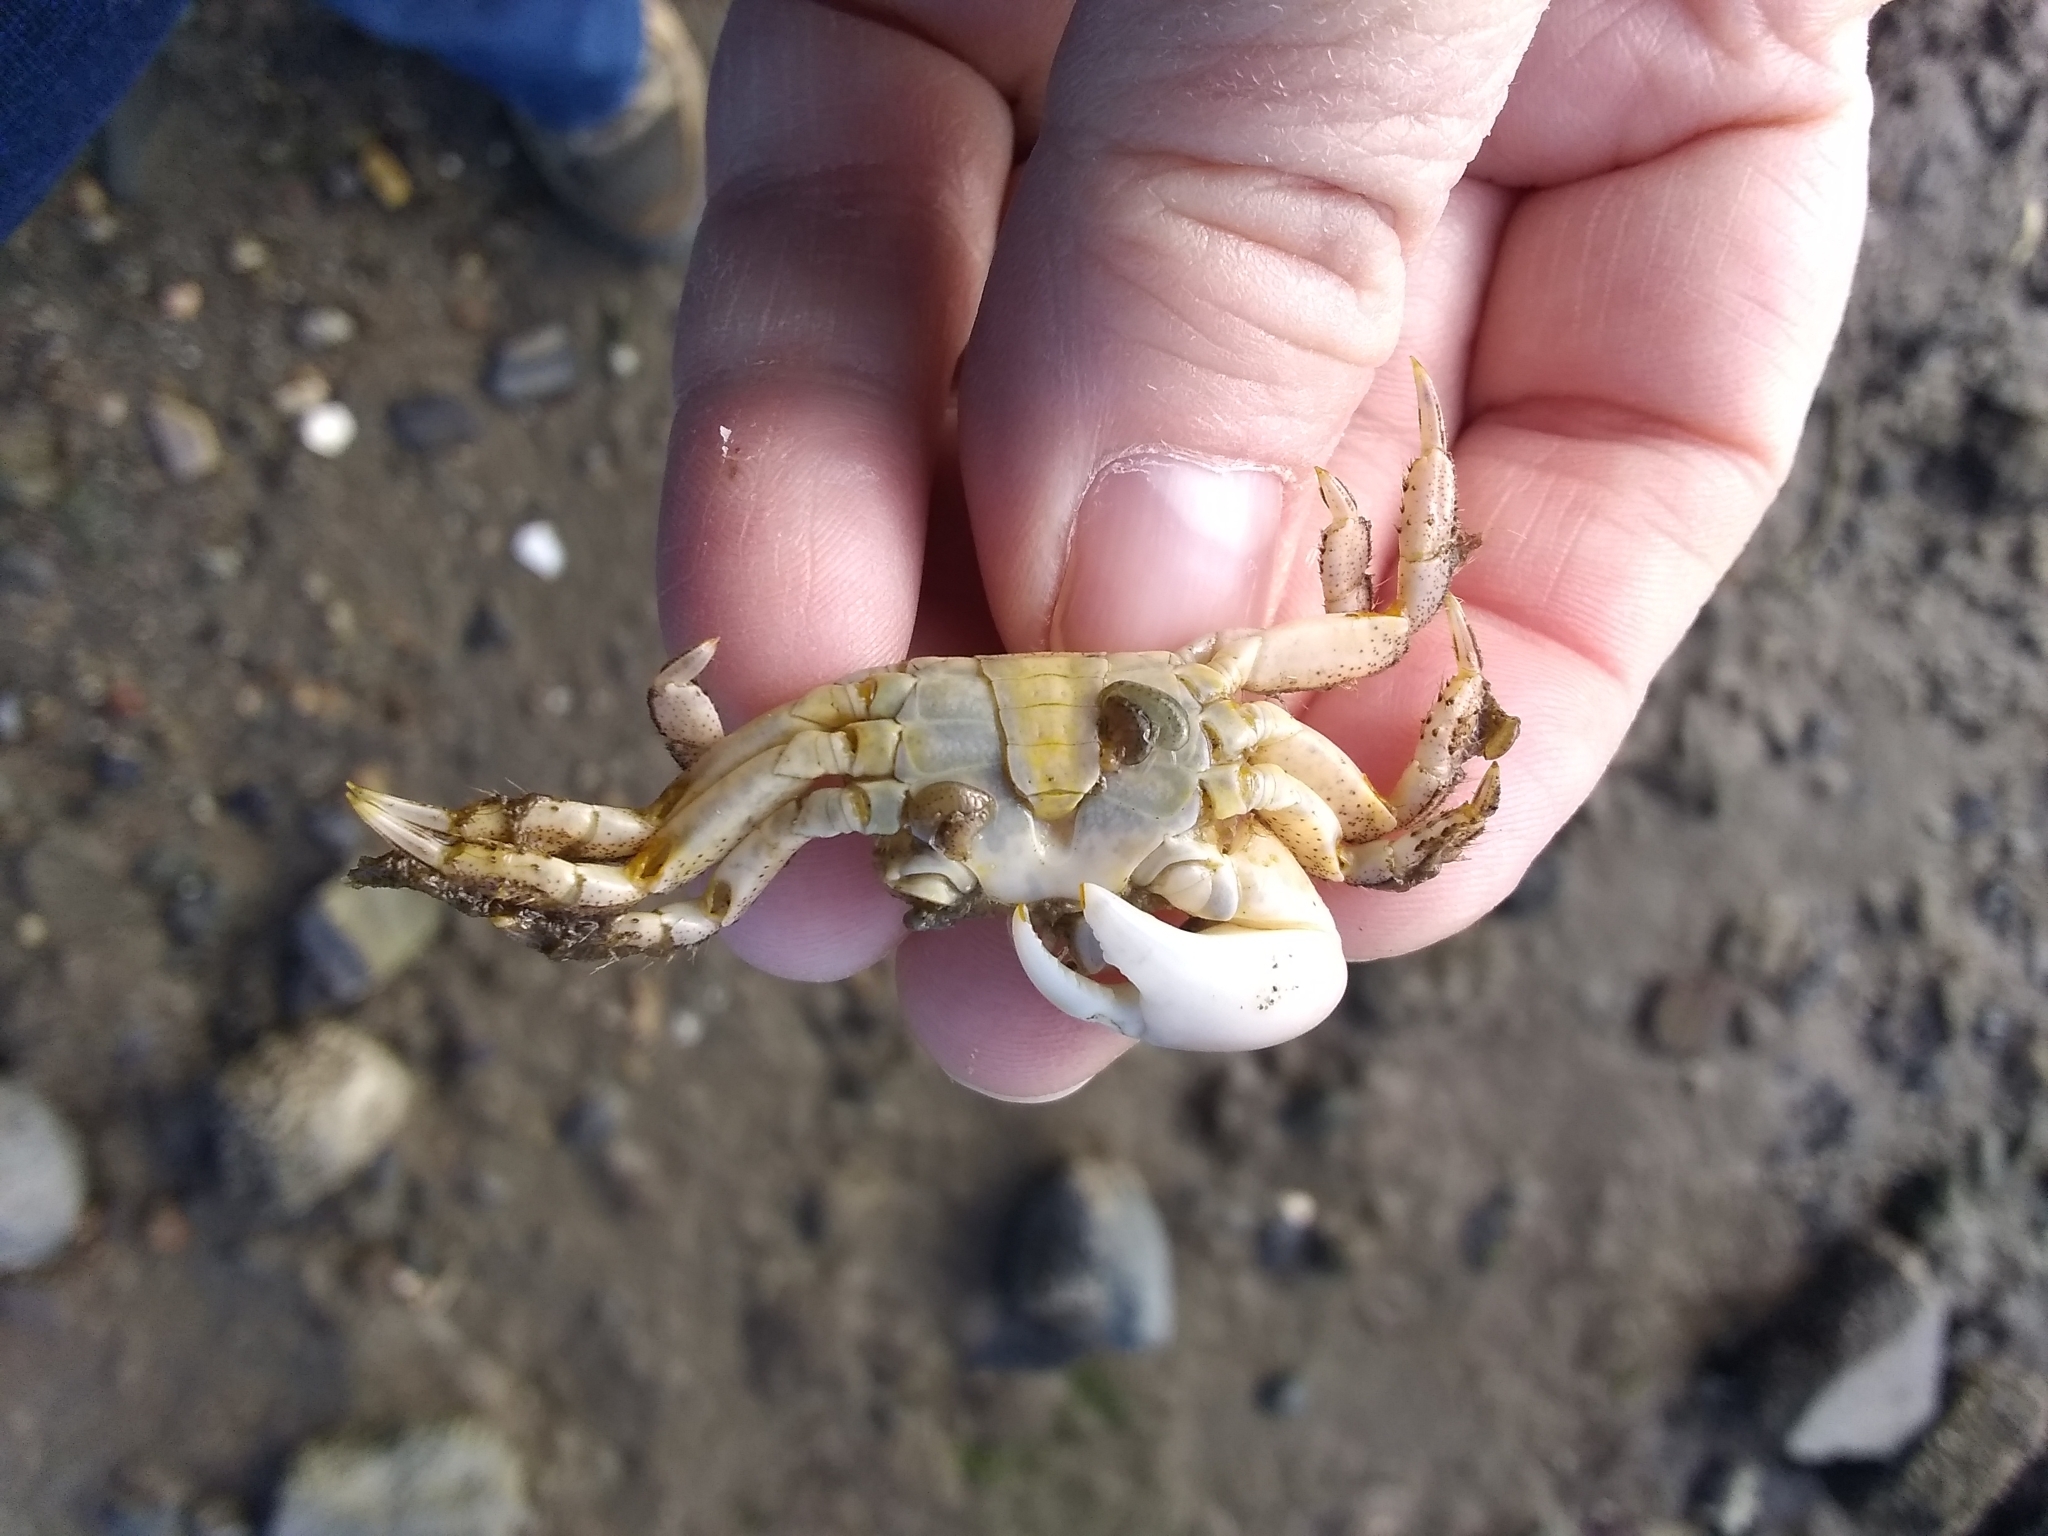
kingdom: Animalia
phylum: Arthropoda
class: Malacostraca
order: Decapoda
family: Varunidae
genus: Hemigrapsus
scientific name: Hemigrapsus oregonensis
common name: Yellow shore crab
